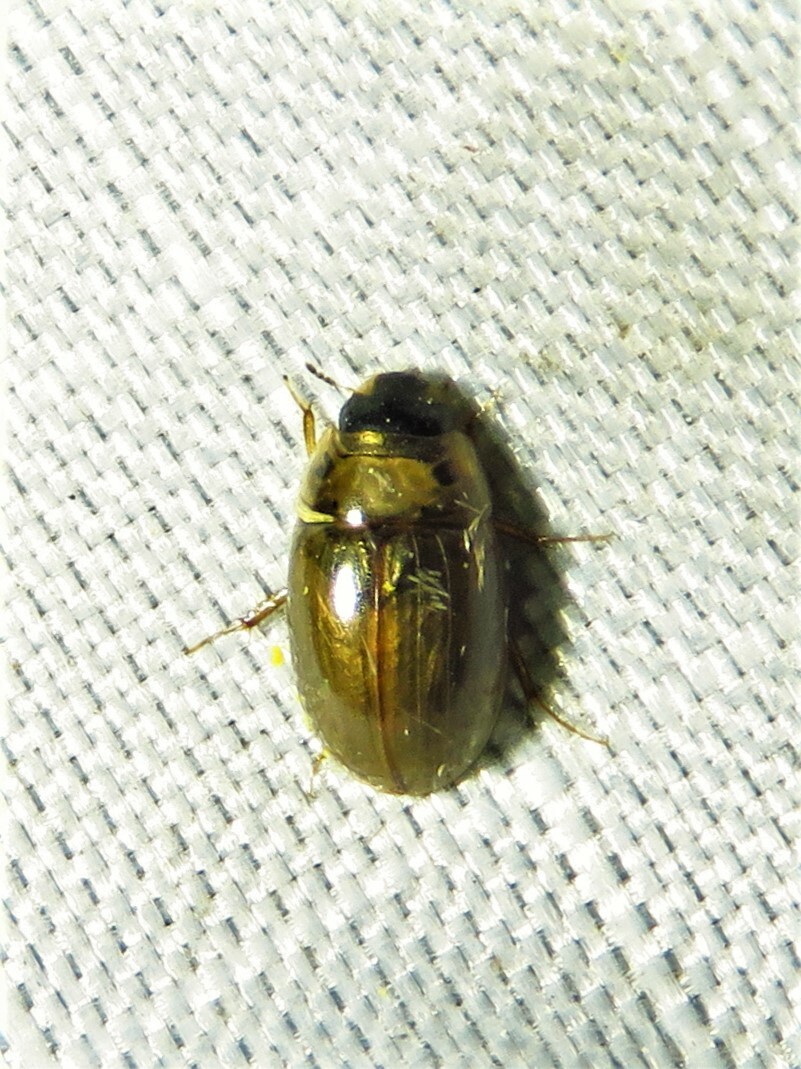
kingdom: Animalia
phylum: Arthropoda
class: Insecta
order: Coleoptera
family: Hydrophilidae
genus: Enochrus
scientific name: Enochrus
